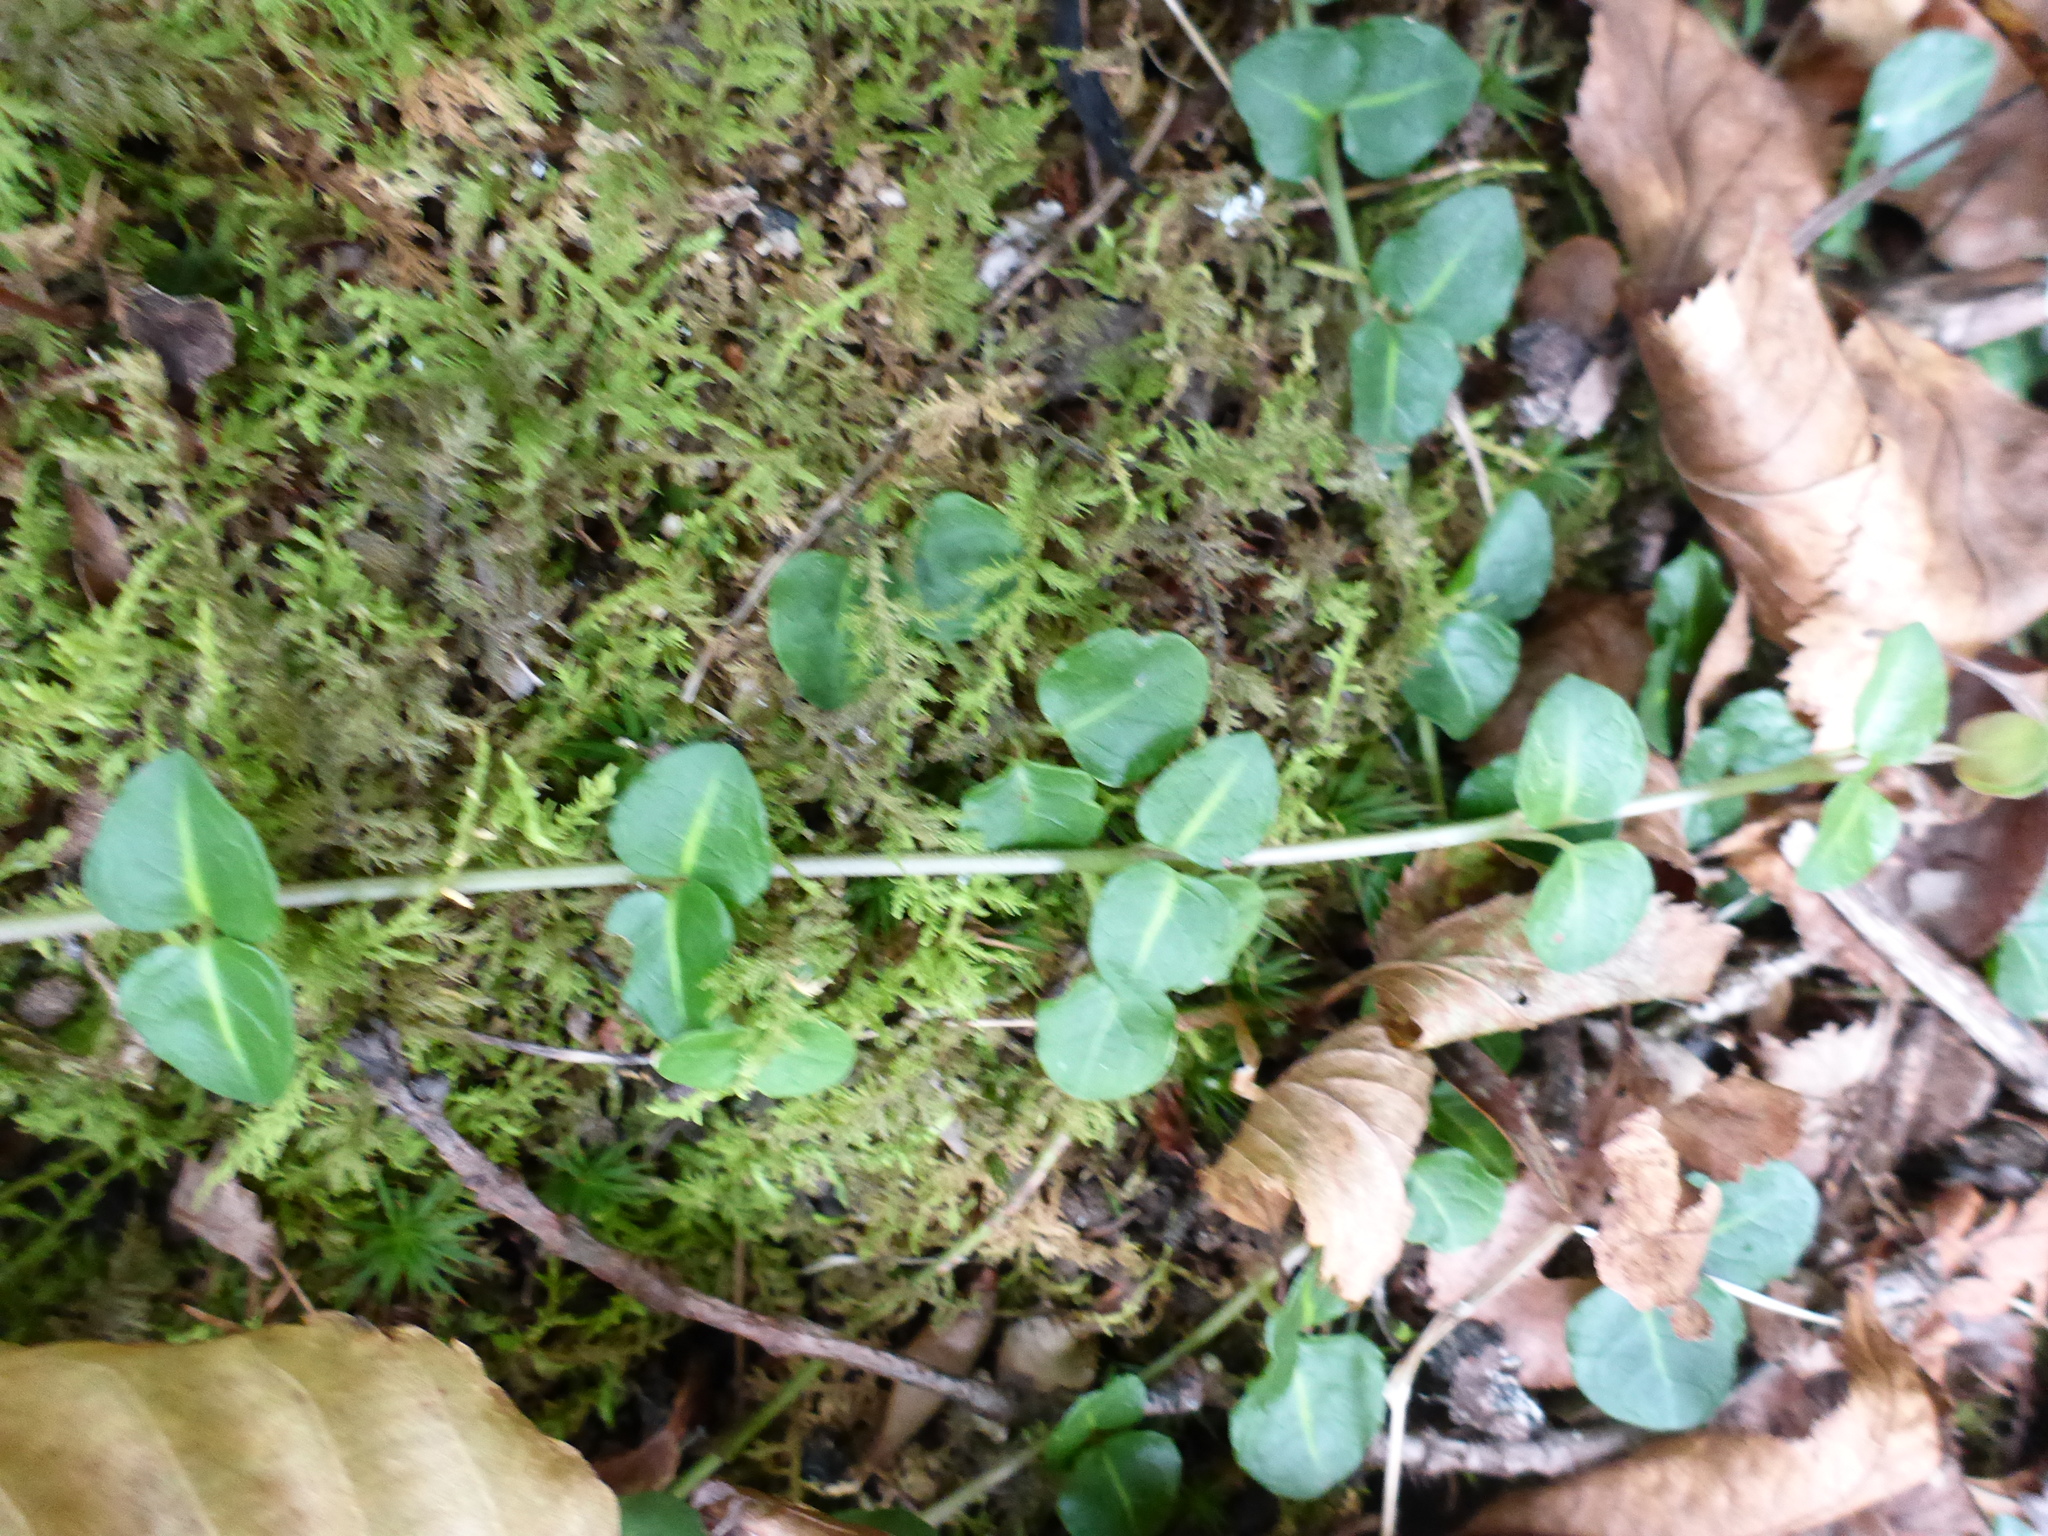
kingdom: Plantae
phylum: Tracheophyta
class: Magnoliopsida
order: Gentianales
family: Rubiaceae
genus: Mitchella
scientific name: Mitchella repens
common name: Partridge-berry
